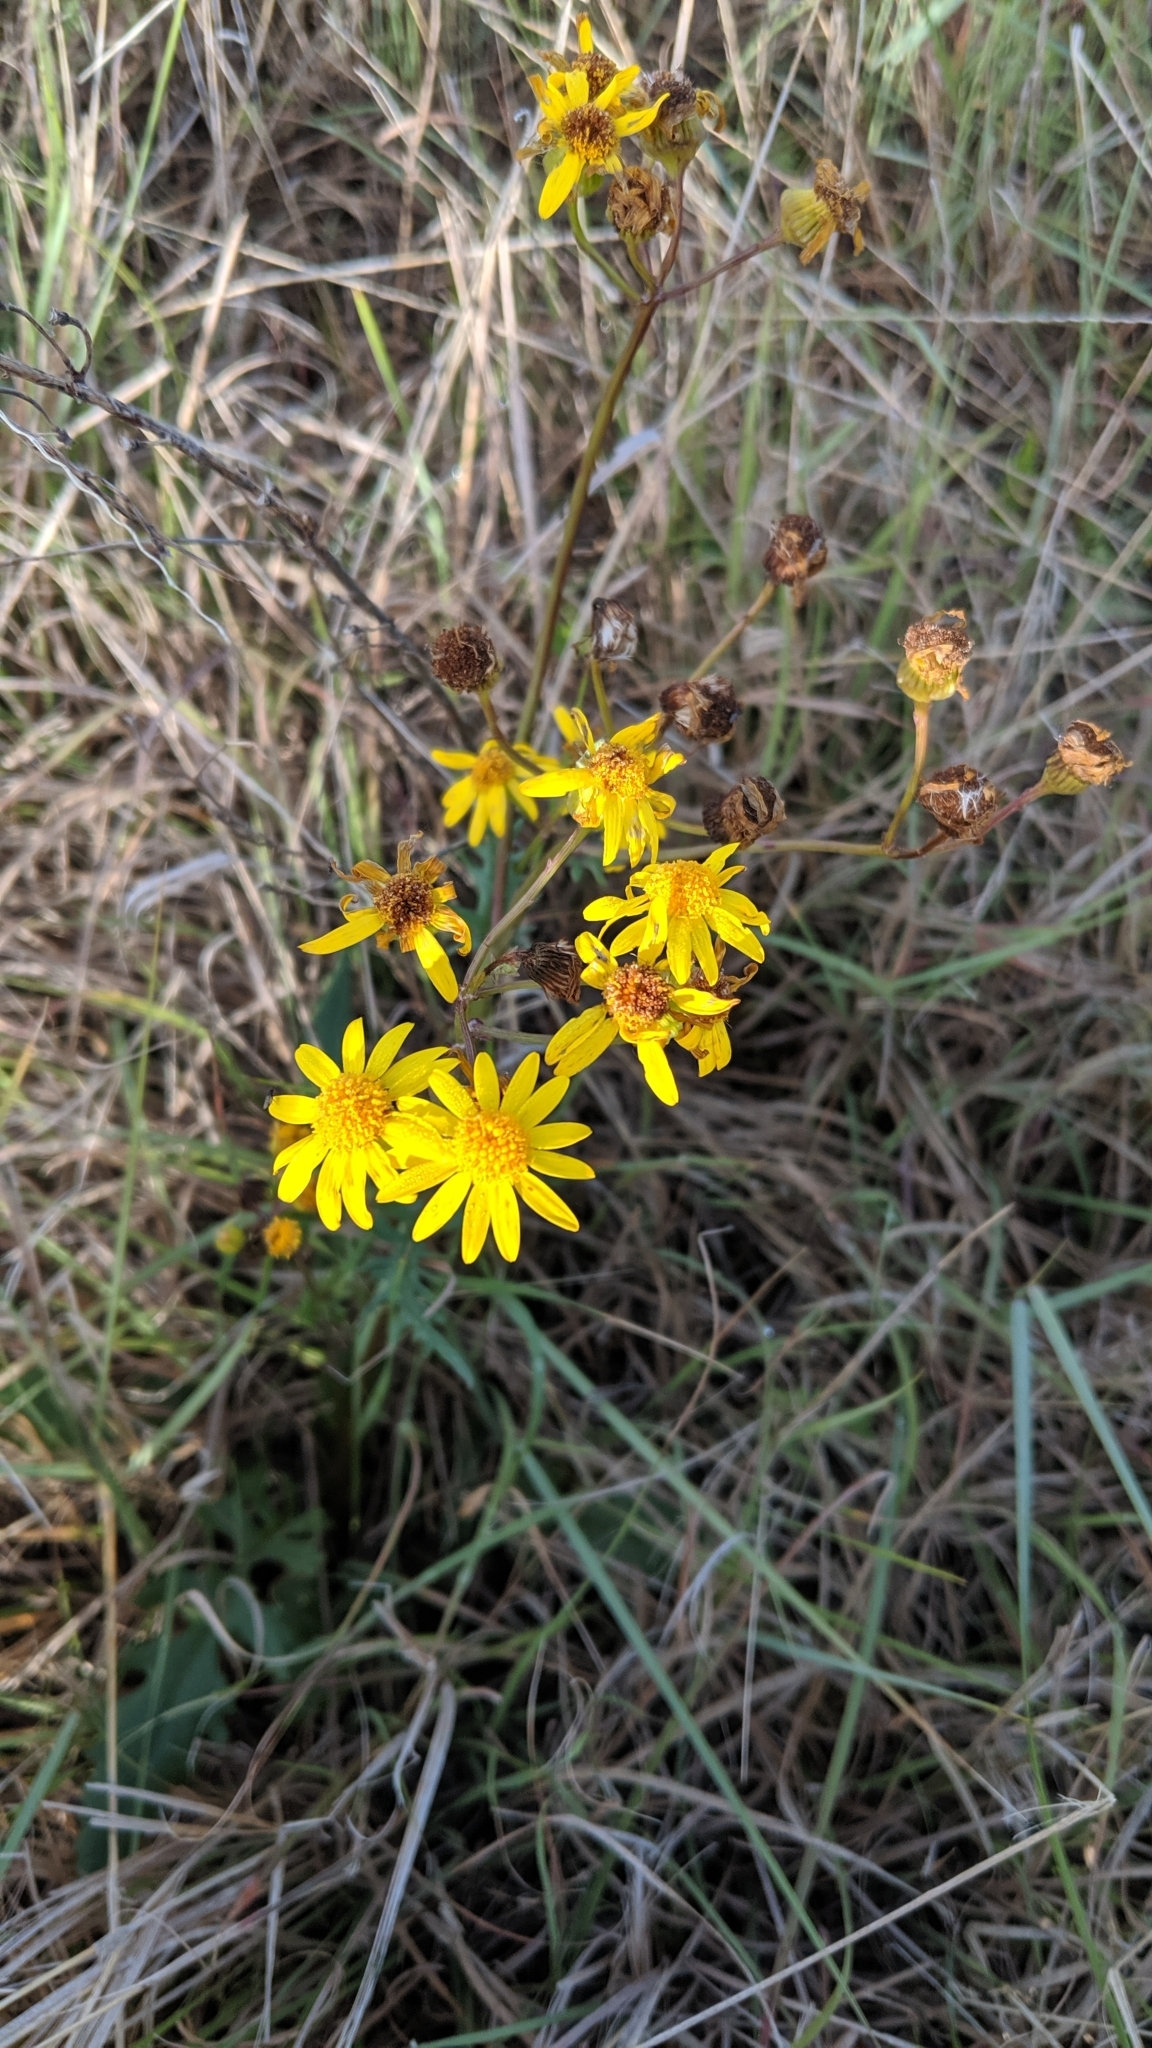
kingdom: Plantae
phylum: Tracheophyta
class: Magnoliopsida
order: Asterales
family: Asteraceae
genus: Packera
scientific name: Packera plattensis
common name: Prairie groundsel
